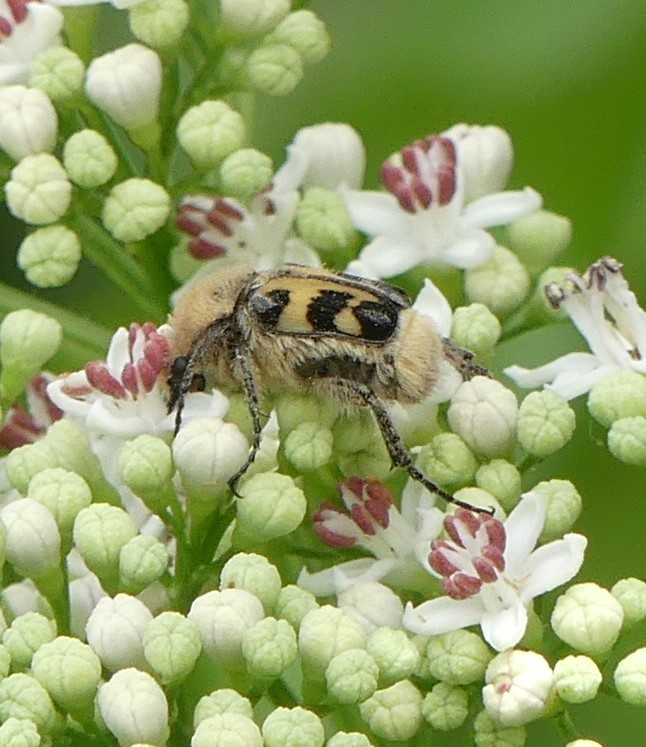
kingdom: Animalia
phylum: Arthropoda
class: Insecta
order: Coleoptera
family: Scarabaeidae
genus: Trichius
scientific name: Trichius gallicus
